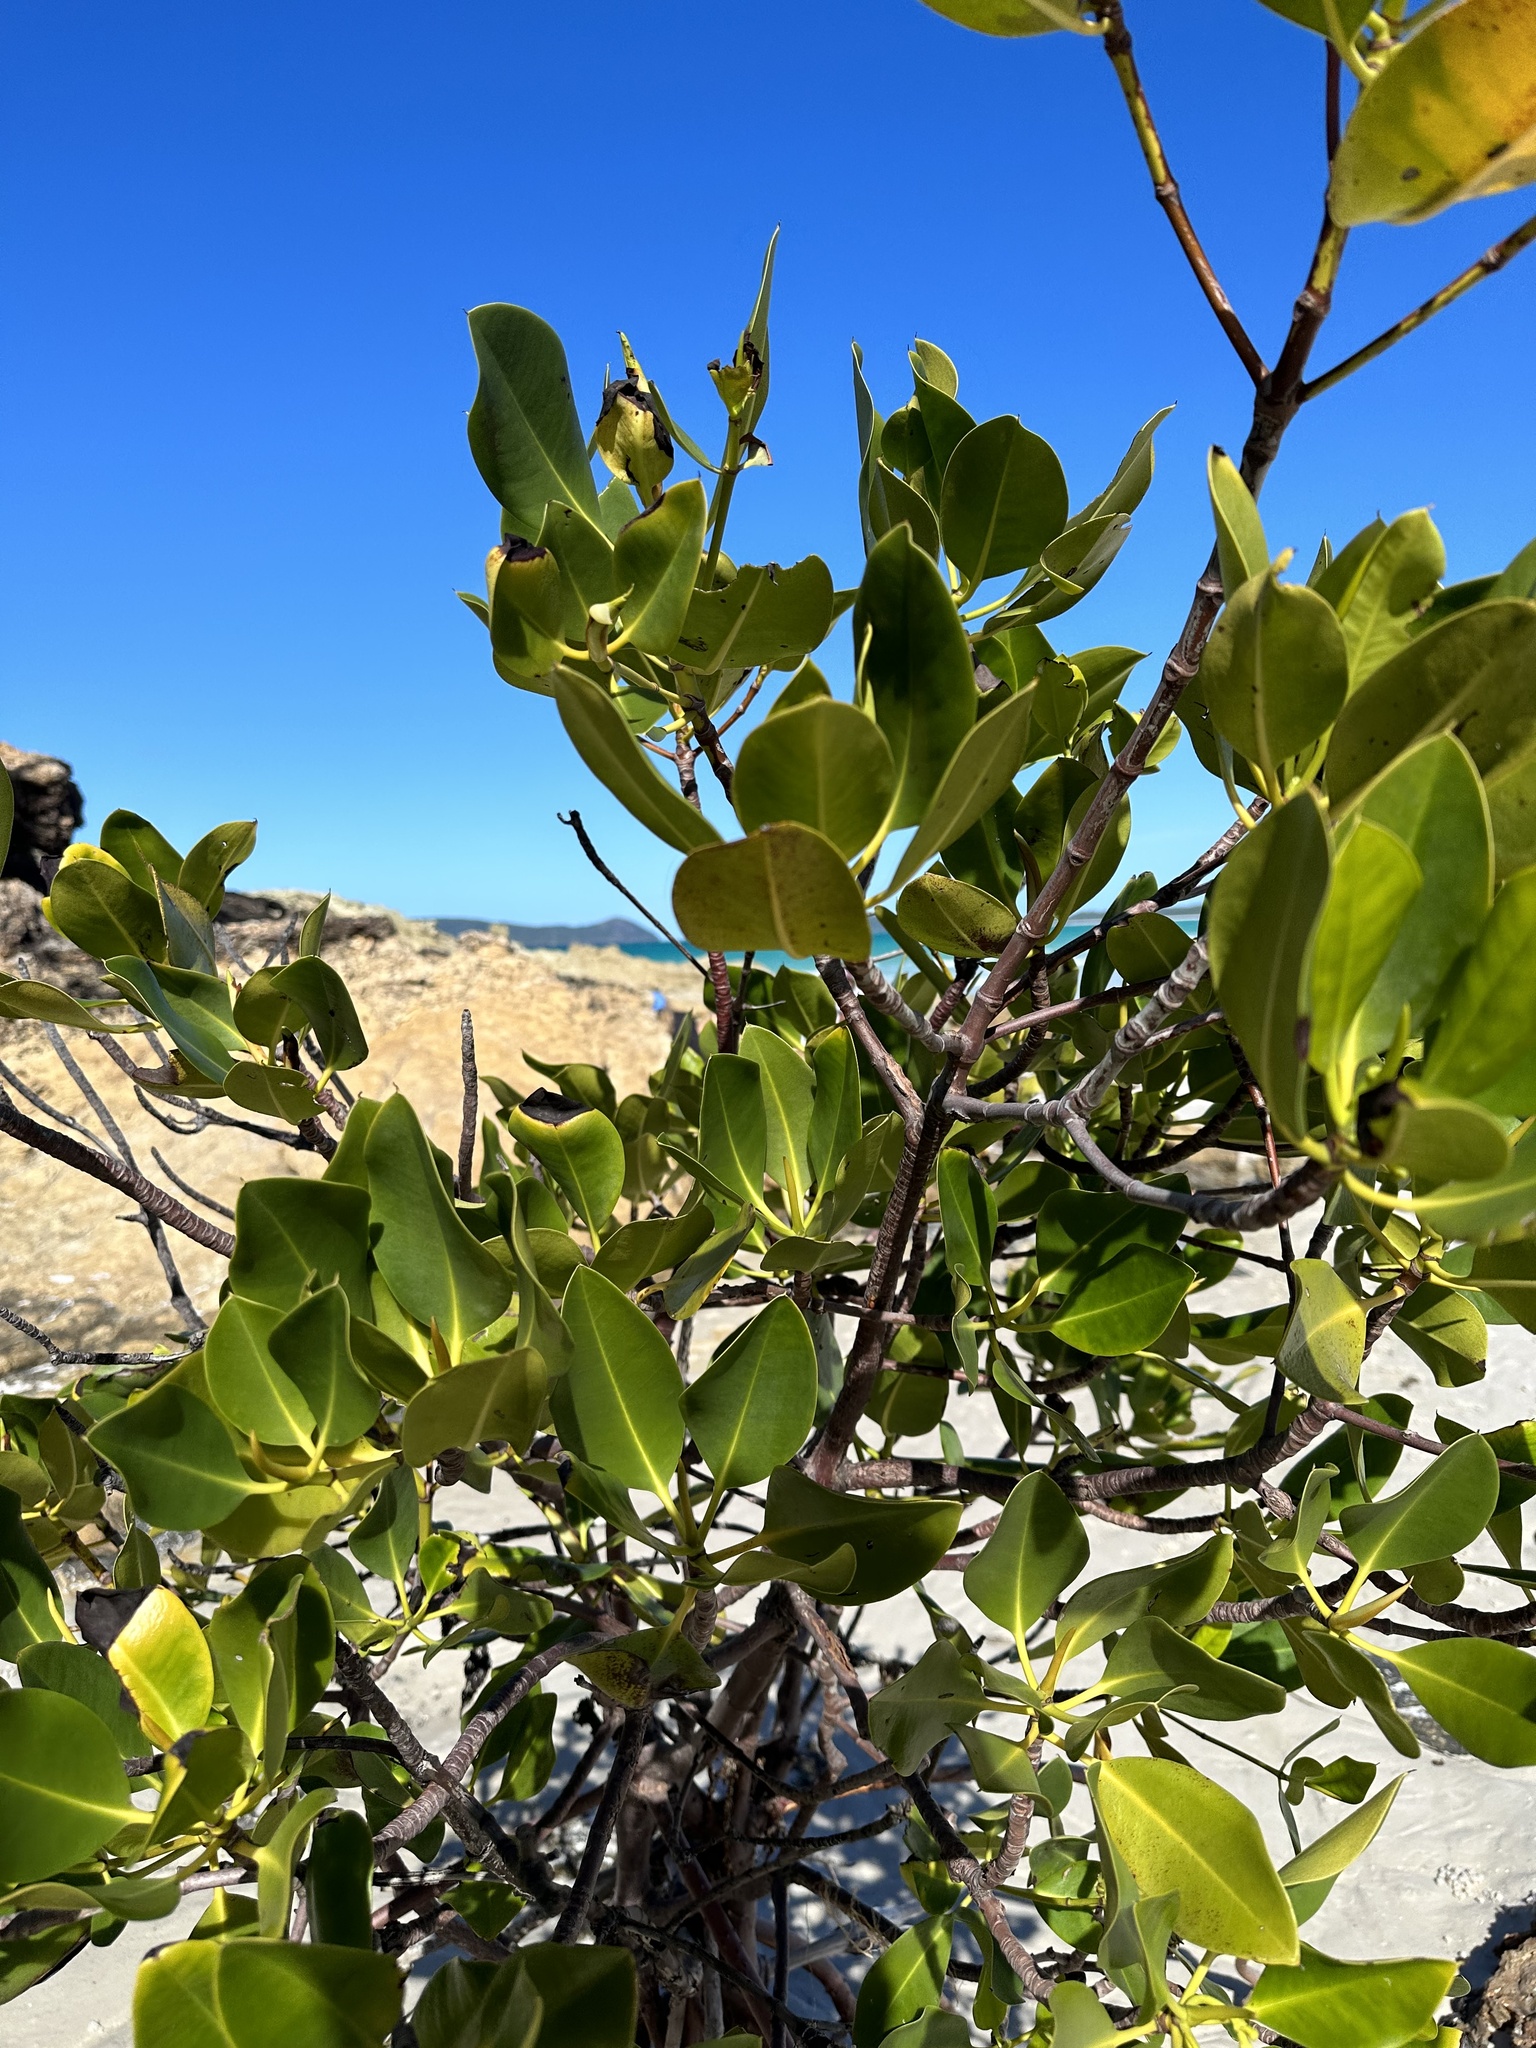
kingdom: Plantae
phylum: Tracheophyta
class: Magnoliopsida
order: Malpighiales
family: Rhizophoraceae
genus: Rhizophora
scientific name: Rhizophora stylosa
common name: Red mangrove
